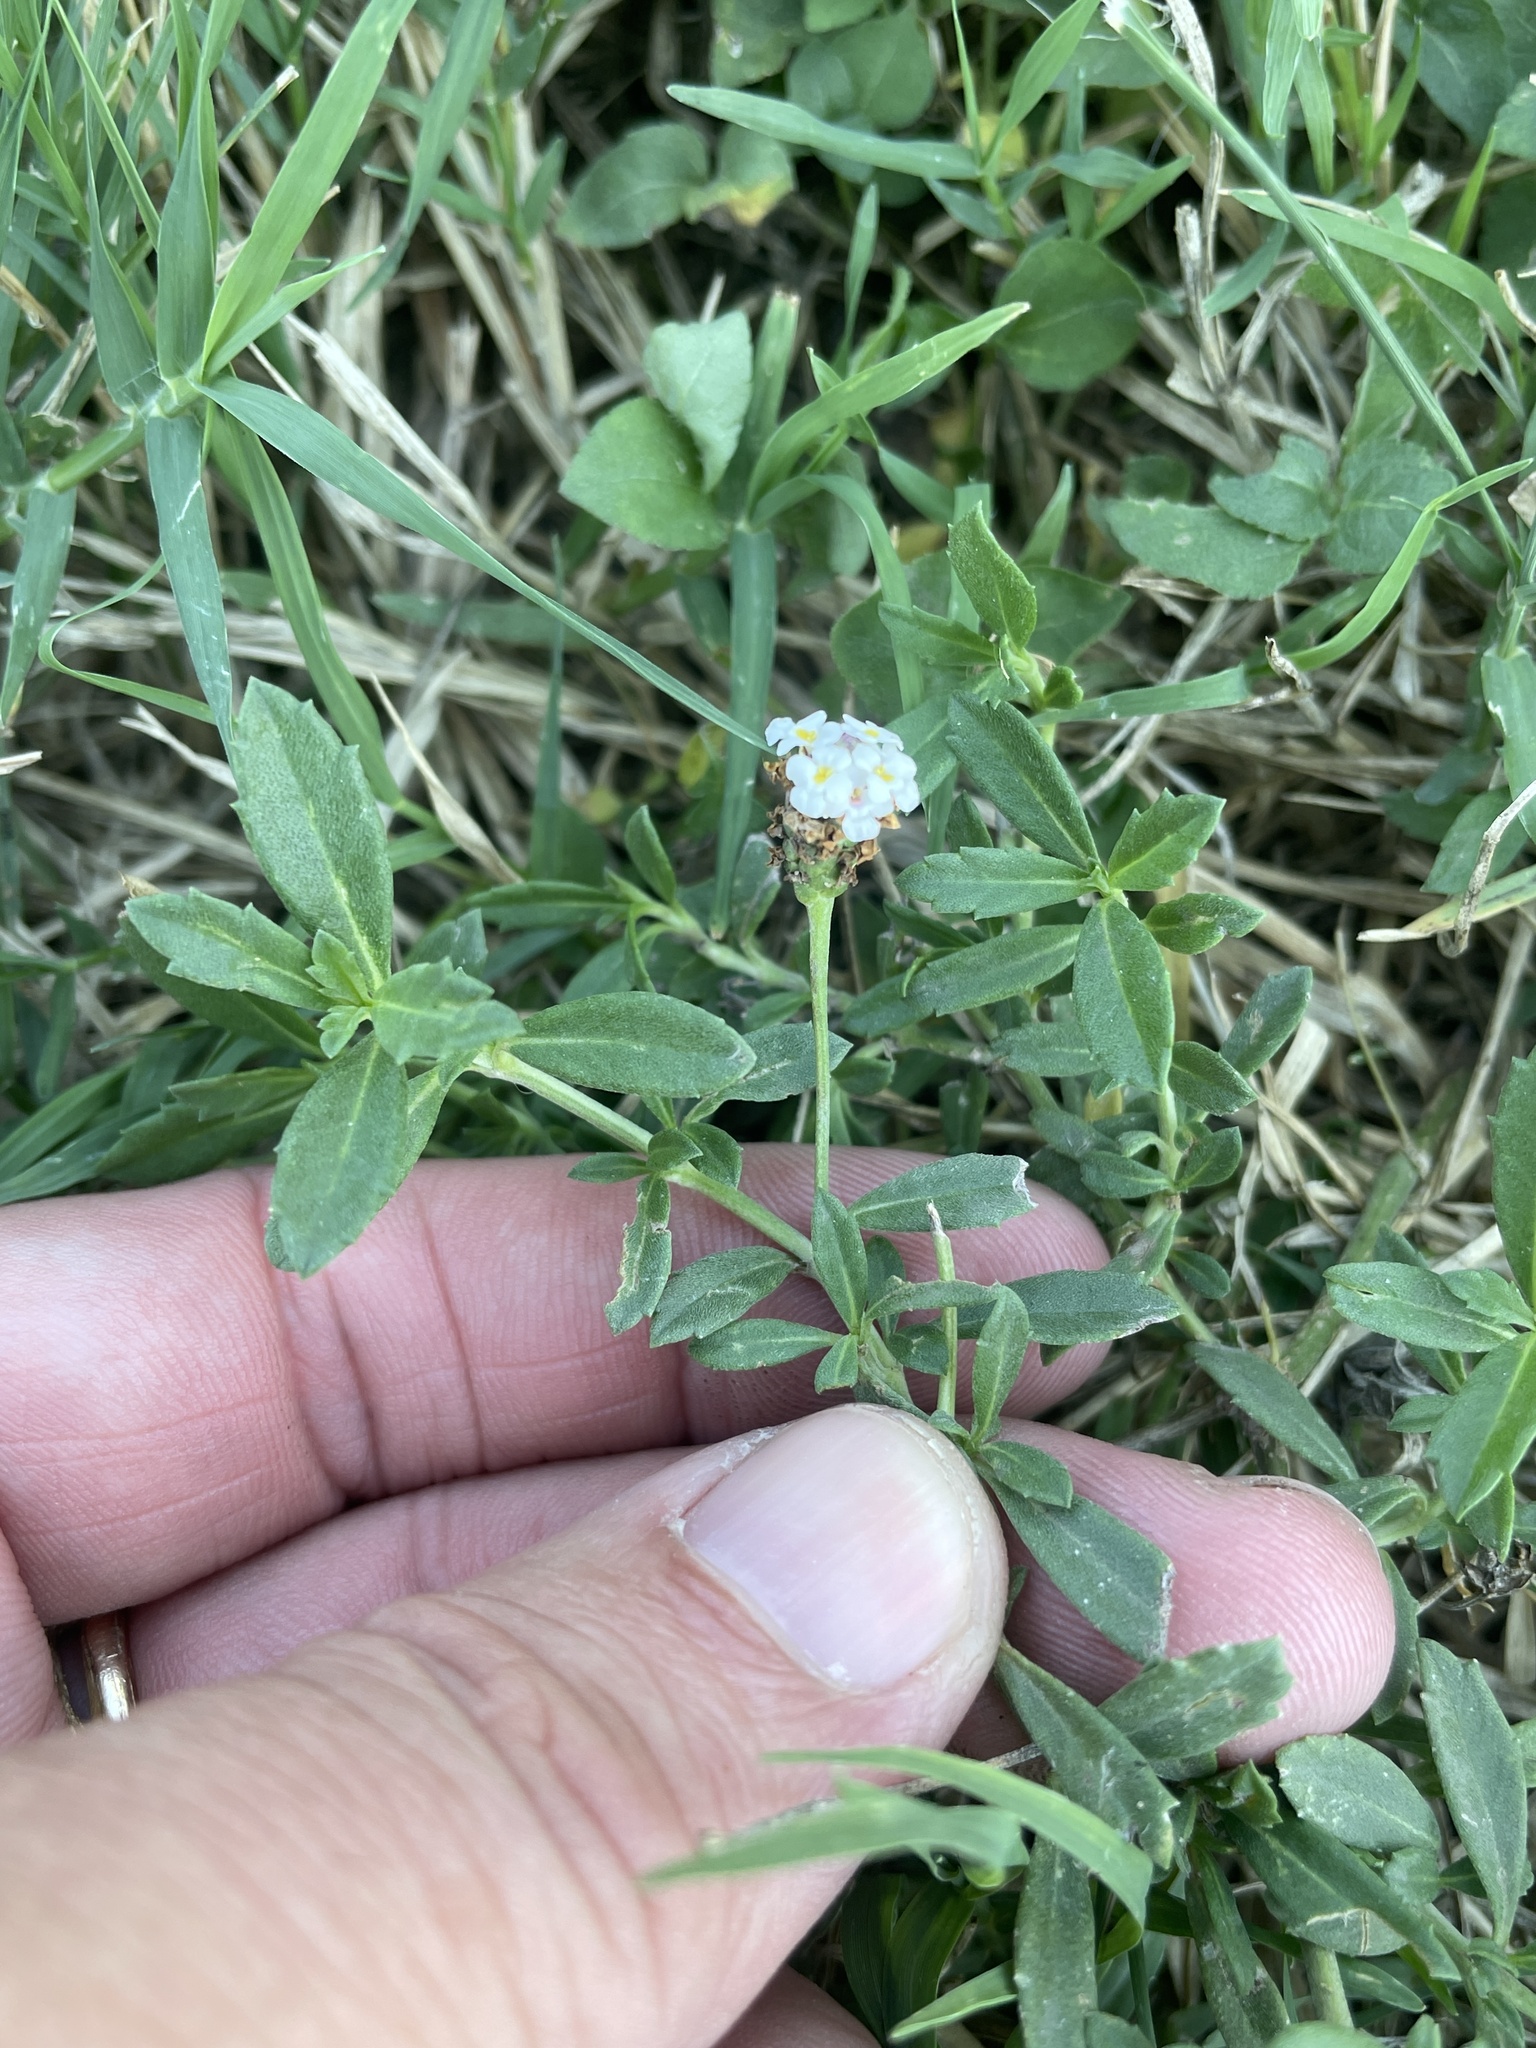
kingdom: Plantae
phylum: Tracheophyta
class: Magnoliopsida
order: Lamiales
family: Verbenaceae
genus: Phyla
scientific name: Phyla nodiflora
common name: Frogfruit
